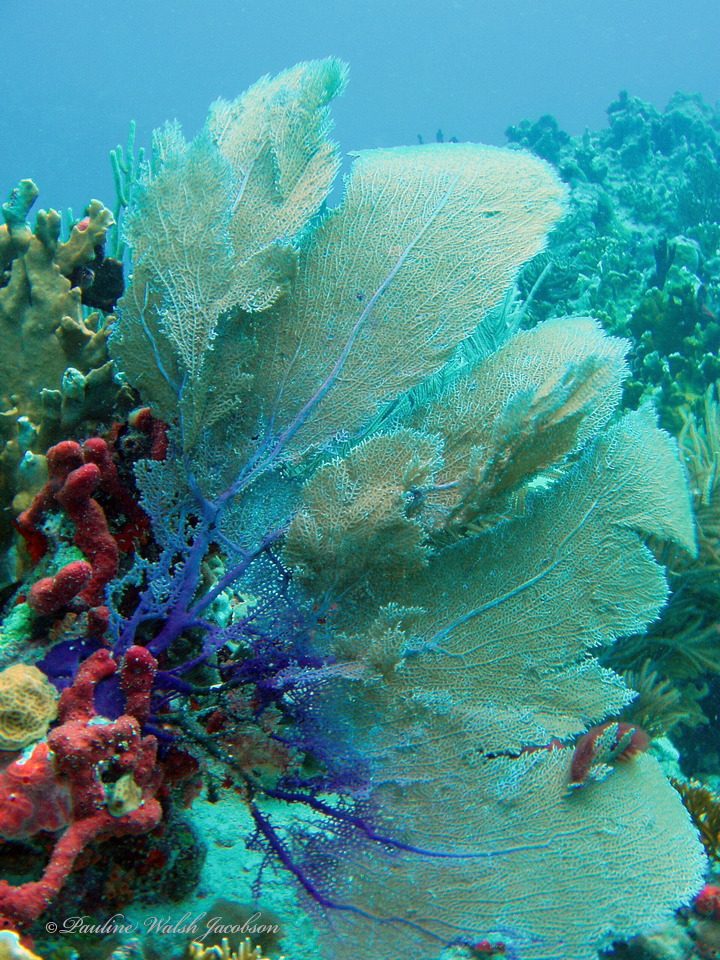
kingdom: Animalia
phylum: Cnidaria
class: Anthozoa
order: Malacalcyonacea
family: Gorgoniidae
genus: Gorgonia
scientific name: Gorgonia ventalina
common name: Common sea fan
